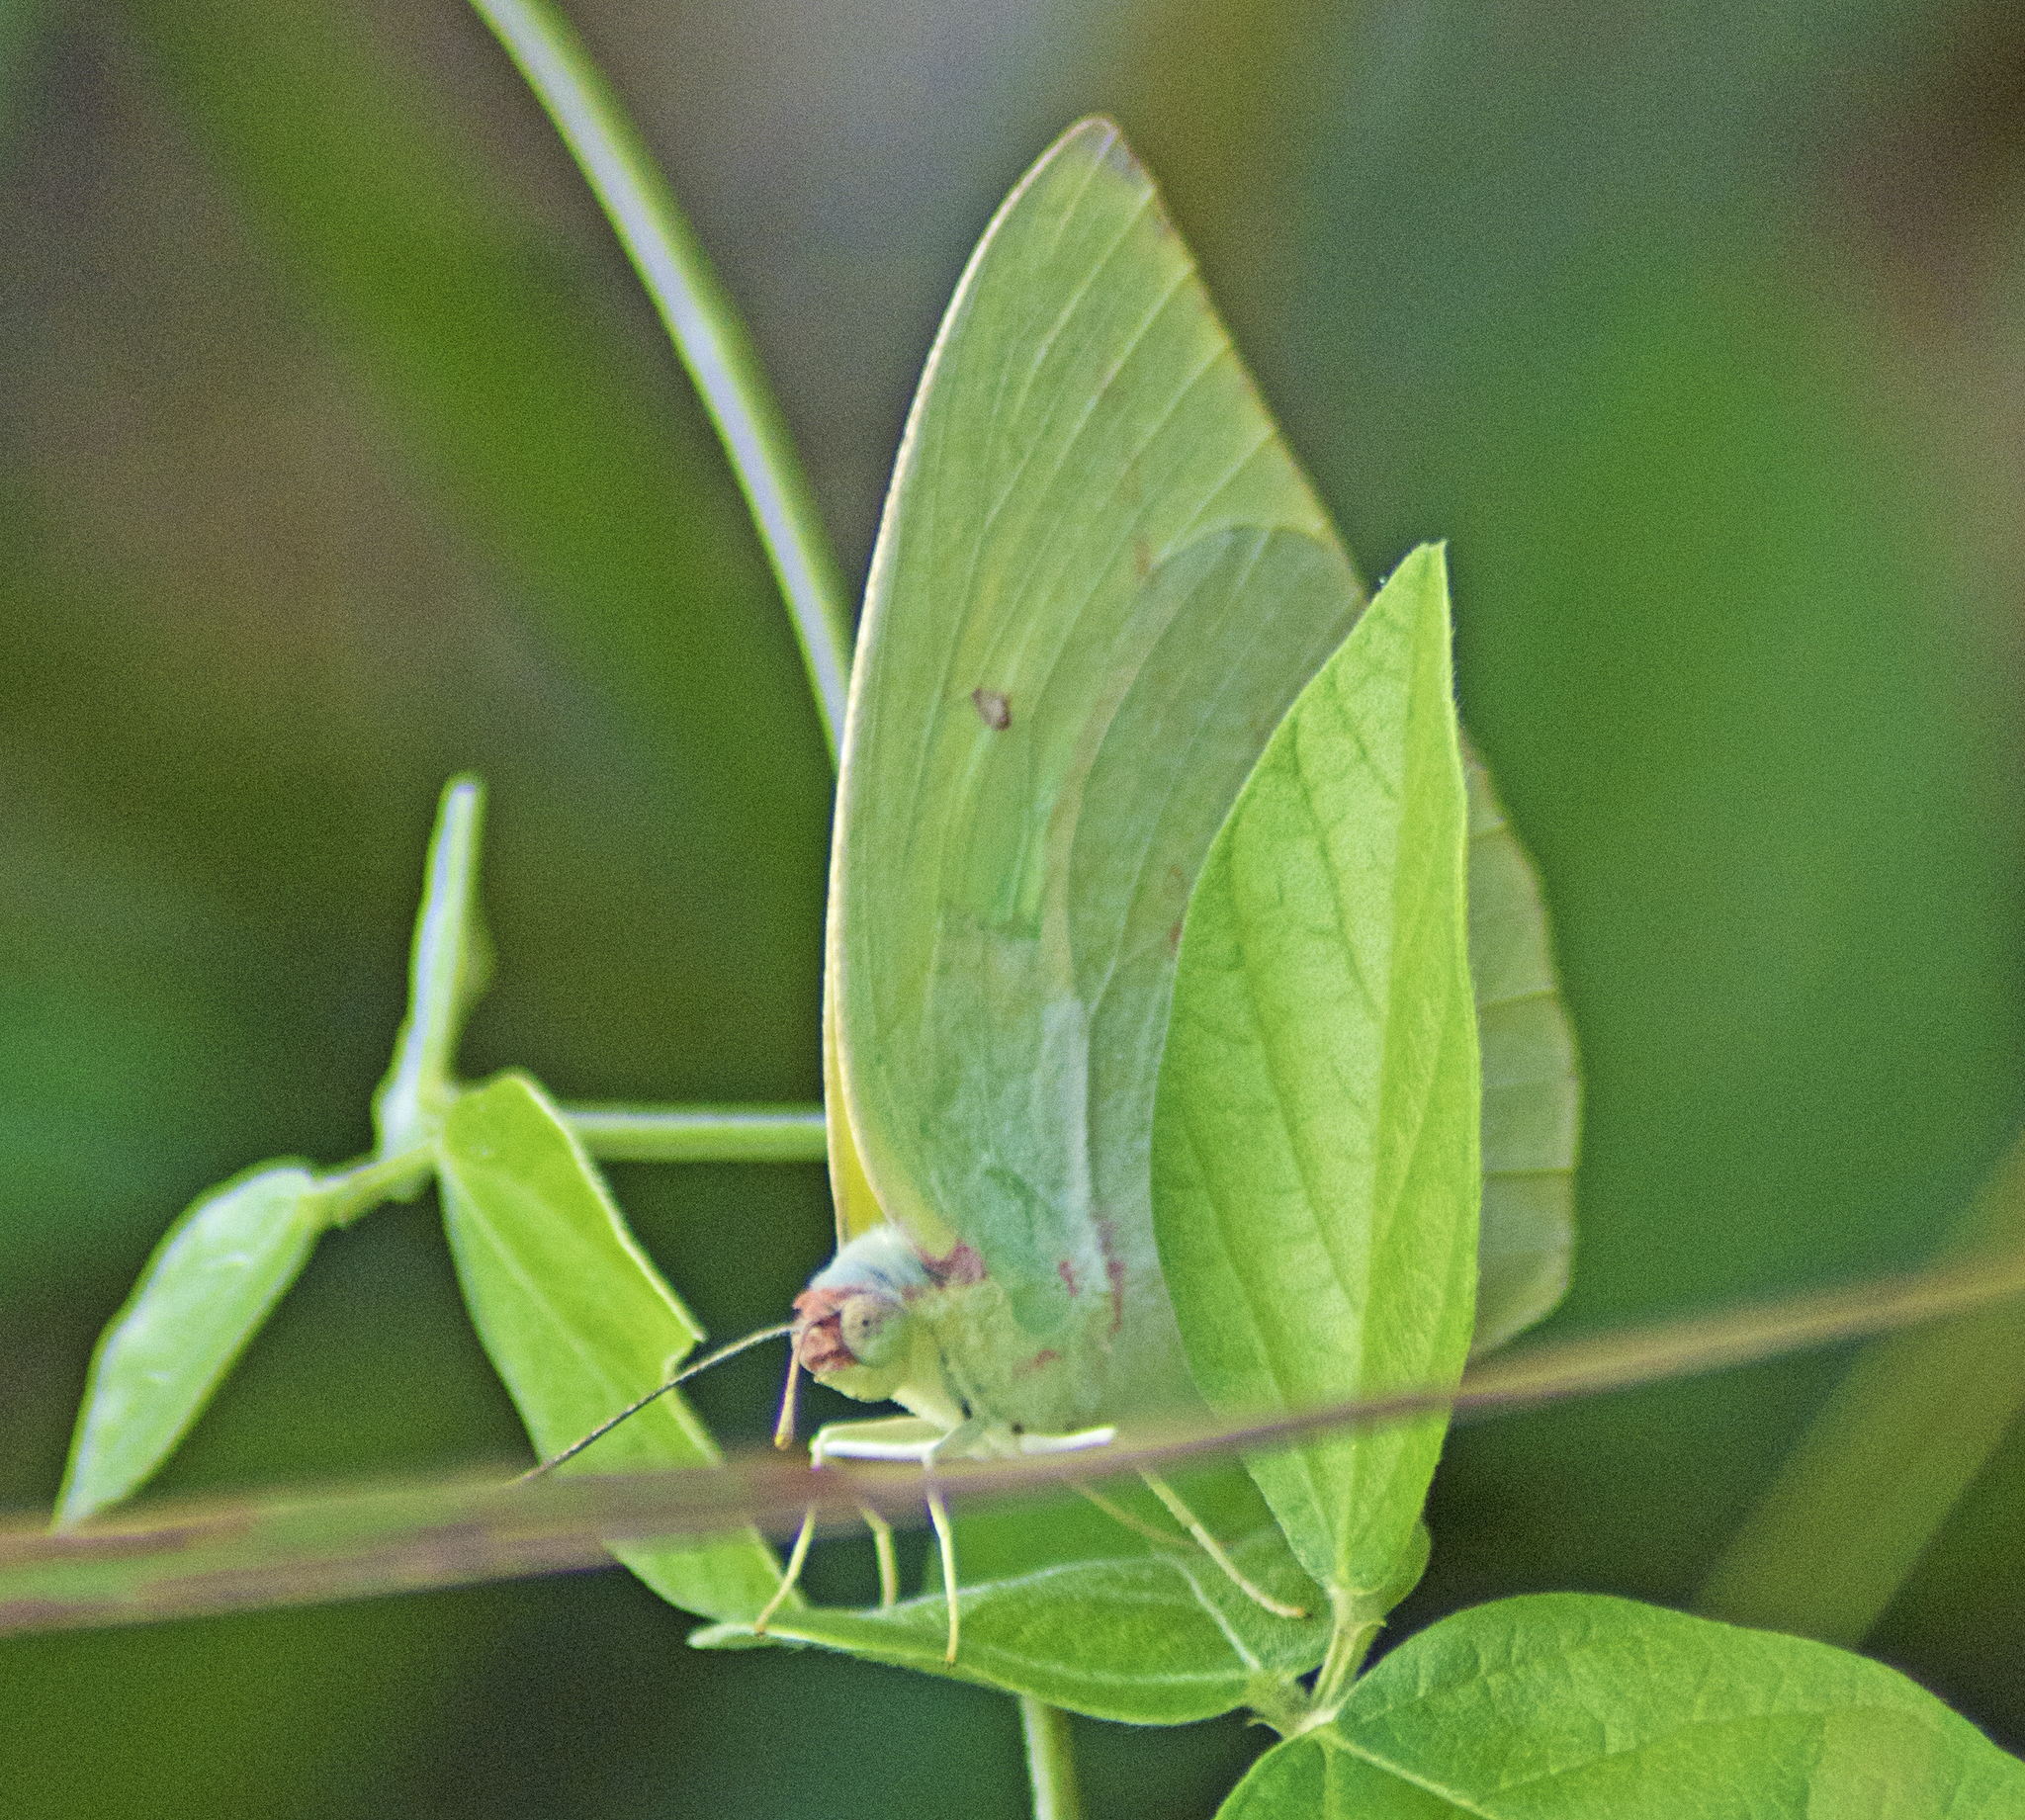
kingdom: Animalia
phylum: Arthropoda
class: Insecta
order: Lepidoptera
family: Pieridae
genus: Catopsilia
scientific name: Catopsilia pomona
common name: Common emigrant
